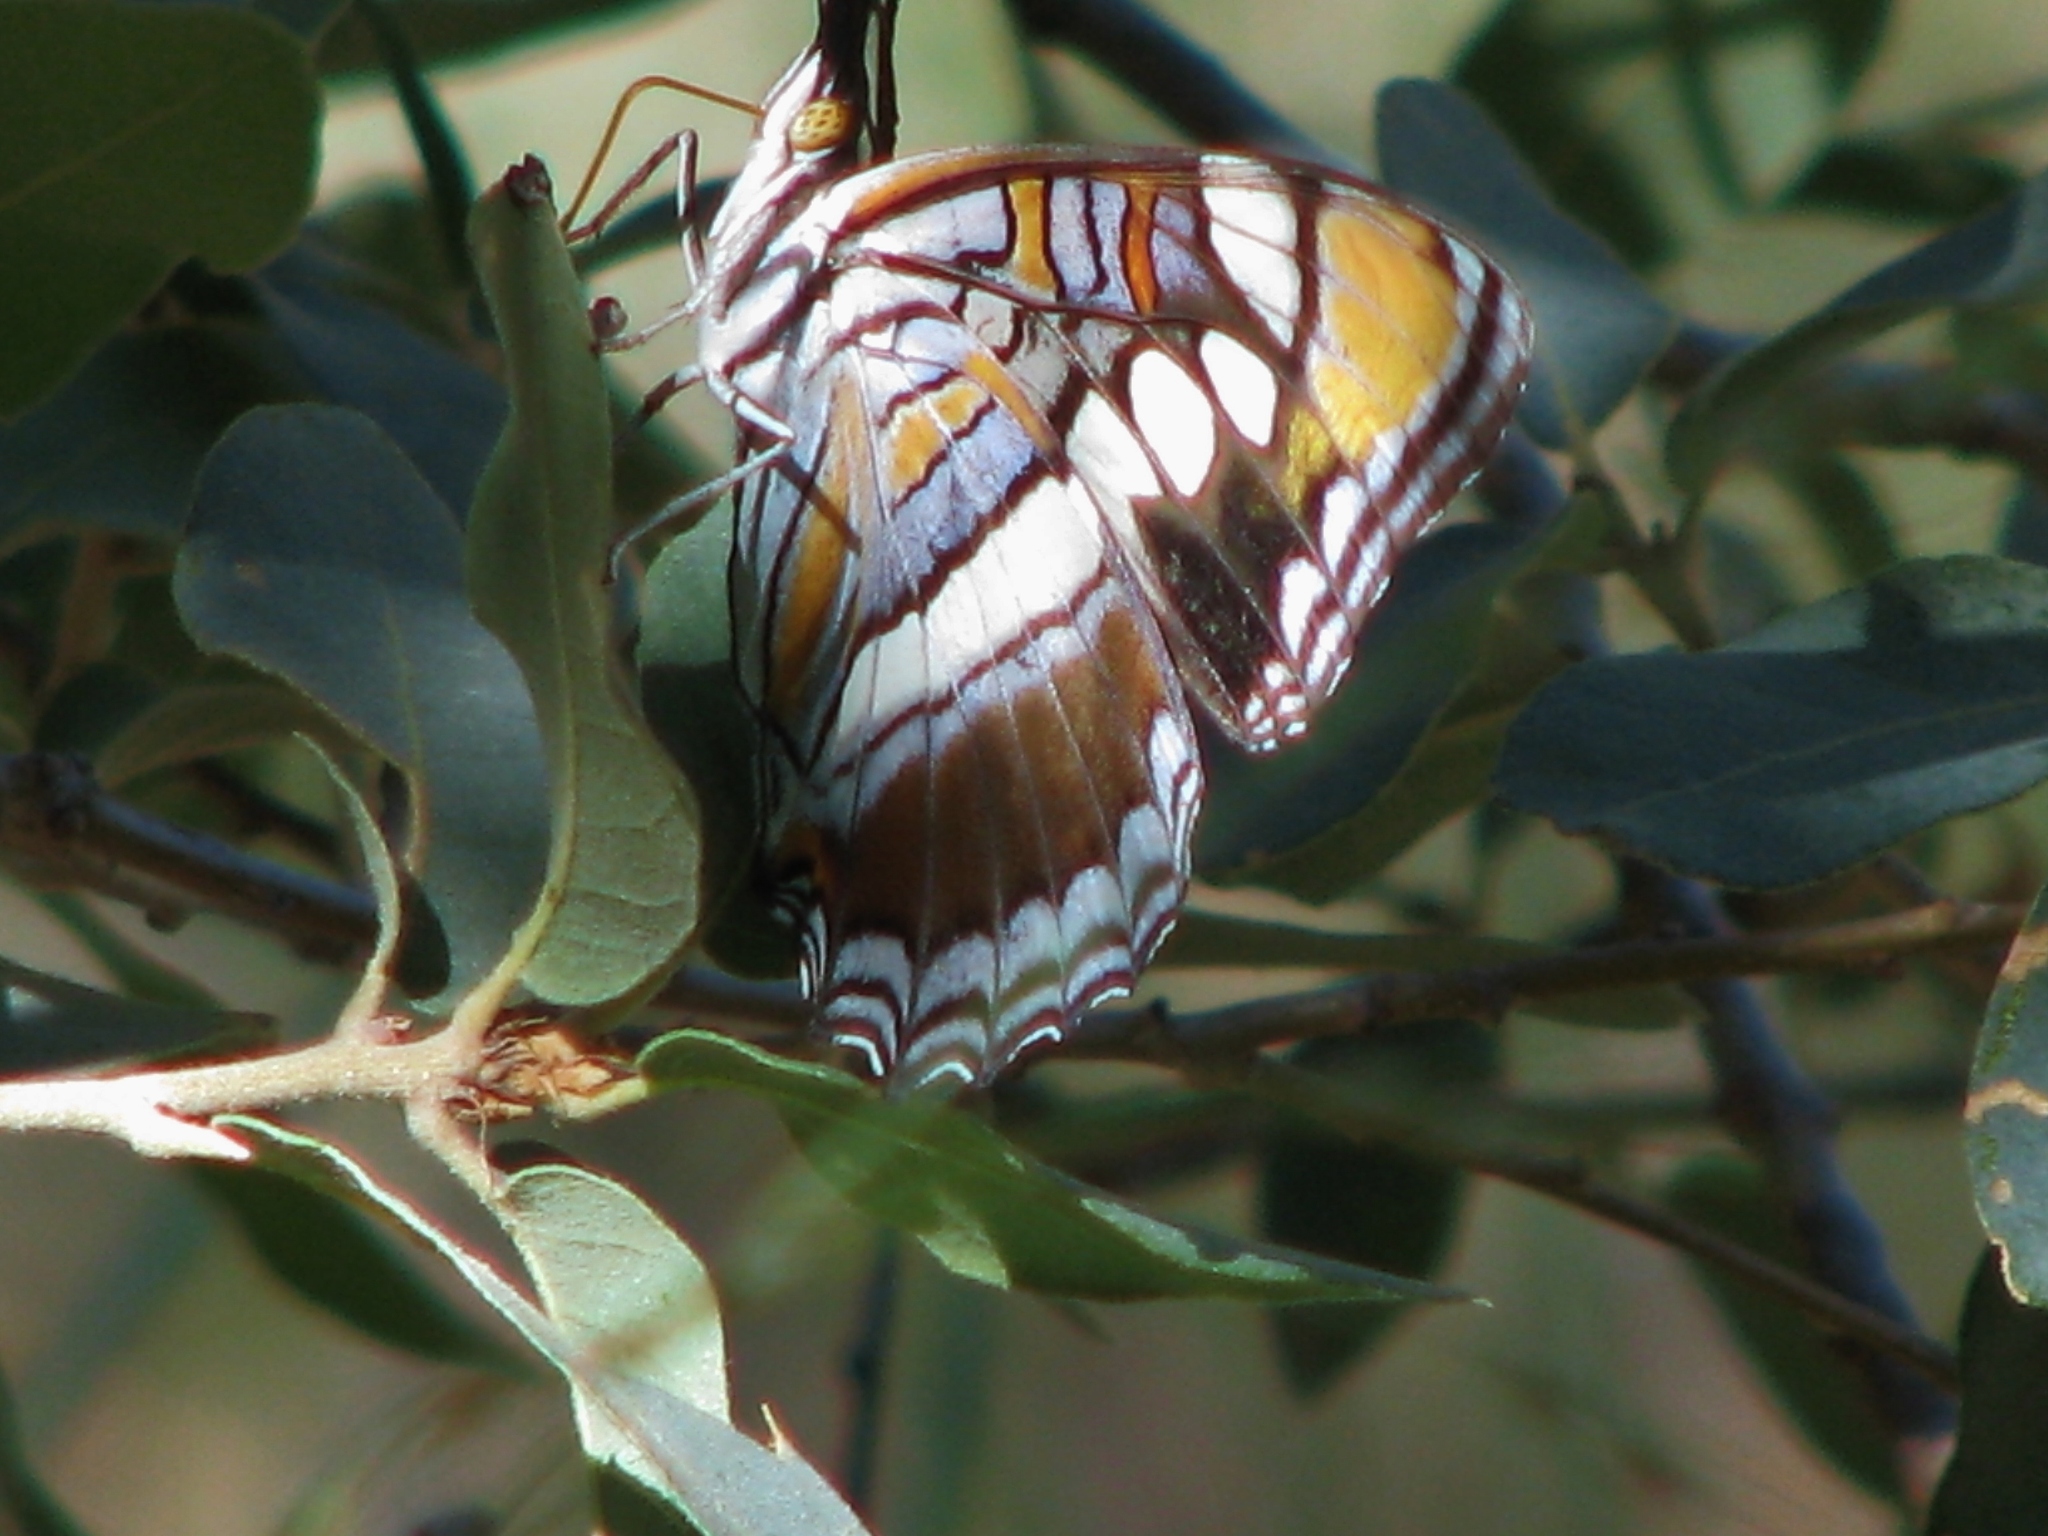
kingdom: Animalia
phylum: Arthropoda
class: Insecta
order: Lepidoptera
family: Nymphalidae
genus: Limenitis
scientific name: Limenitis bredowii
